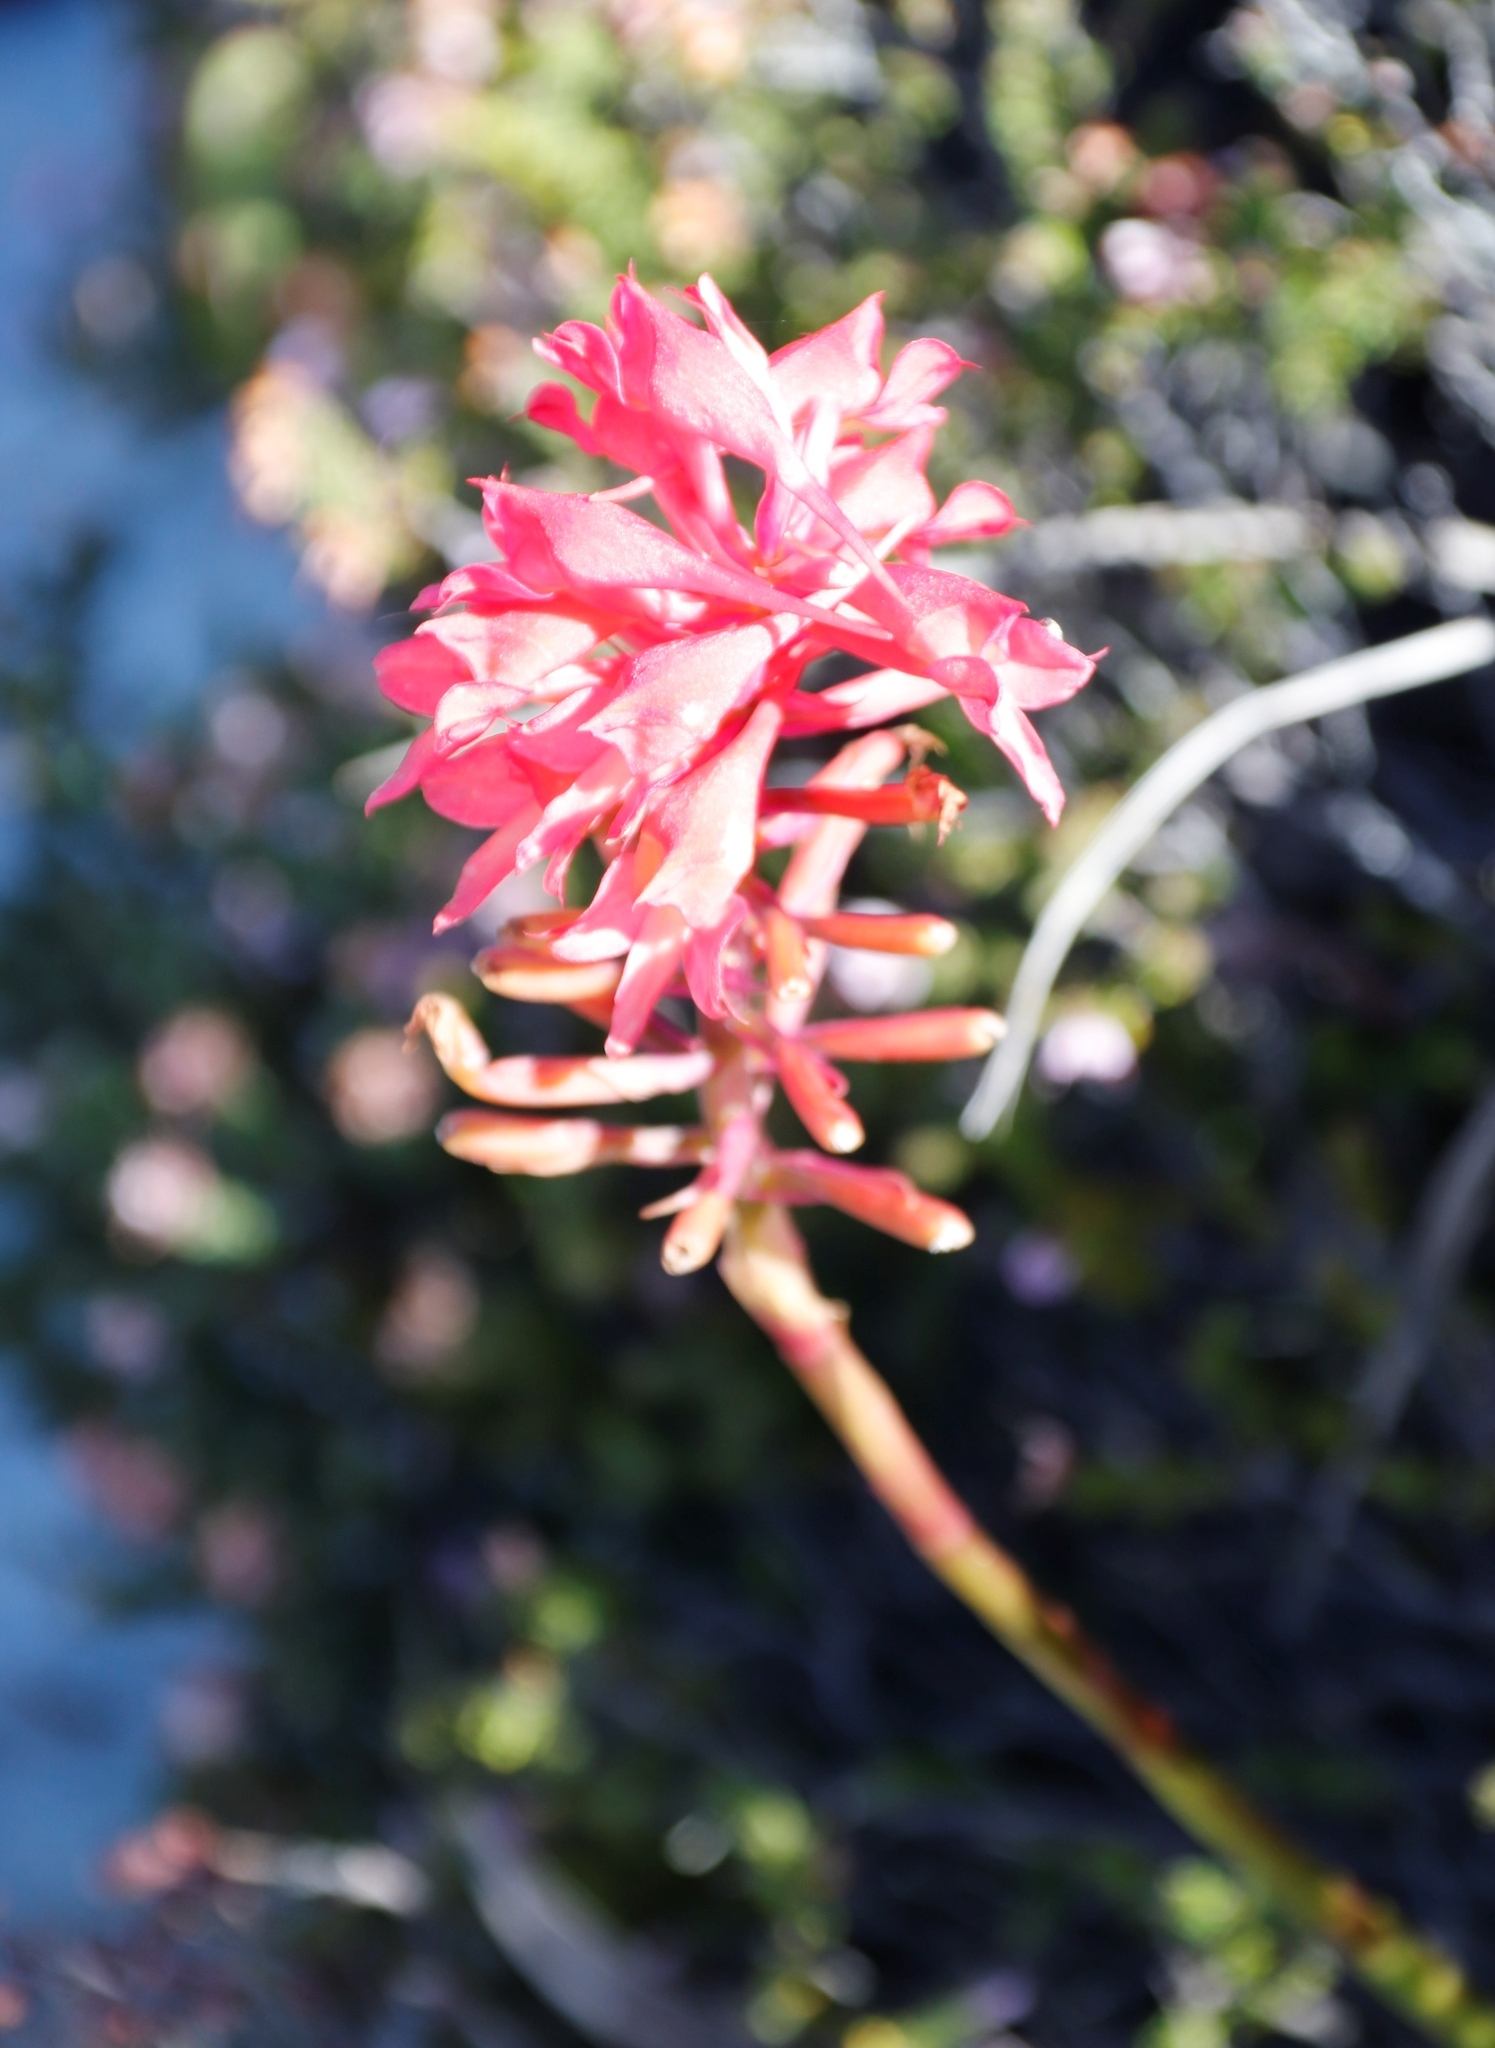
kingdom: Plantae
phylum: Tracheophyta
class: Liliopsida
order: Asparagales
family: Orchidaceae
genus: Disa
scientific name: Disa ferruginea
